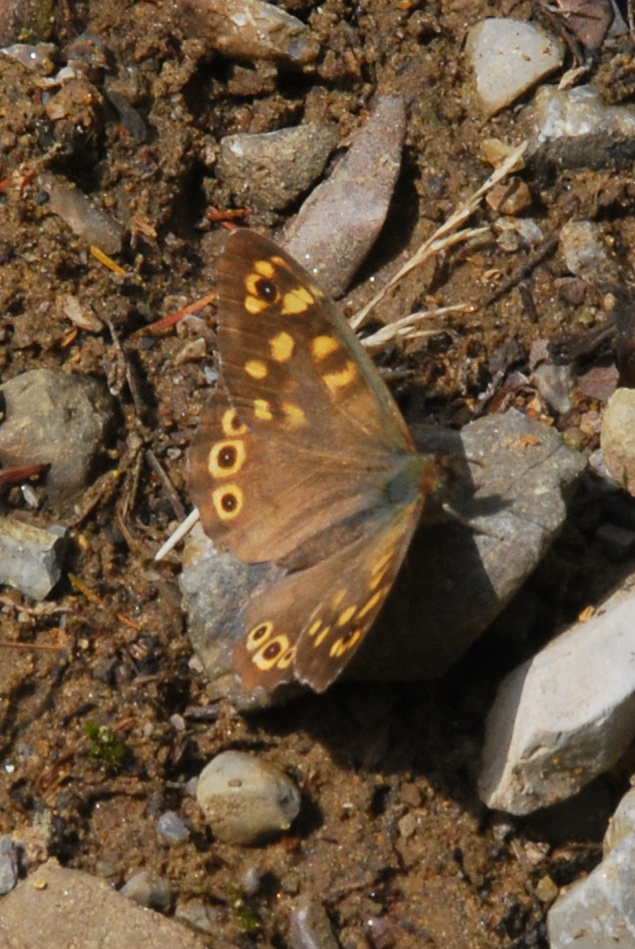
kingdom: Animalia
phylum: Arthropoda
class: Insecta
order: Lepidoptera
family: Nymphalidae
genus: Pararge
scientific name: Pararge aegeria
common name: Speckled wood
